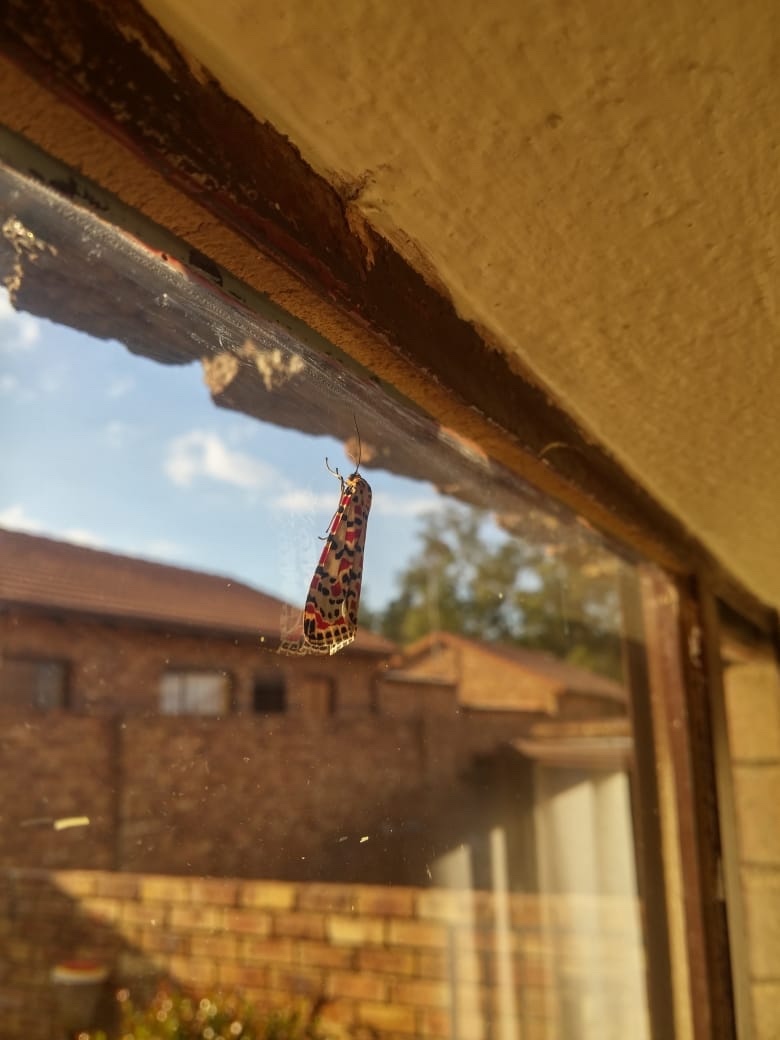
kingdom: Animalia
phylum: Arthropoda
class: Insecta
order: Lepidoptera
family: Erebidae
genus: Utetheisa
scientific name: Utetheisa pulchella
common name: Crimson speckled
